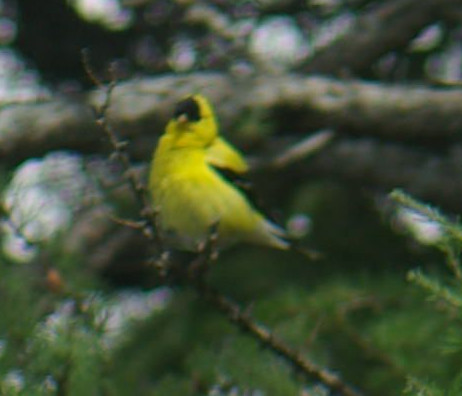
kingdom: Animalia
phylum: Chordata
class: Aves
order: Passeriformes
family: Fringillidae
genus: Spinus
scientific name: Spinus tristis
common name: American goldfinch
